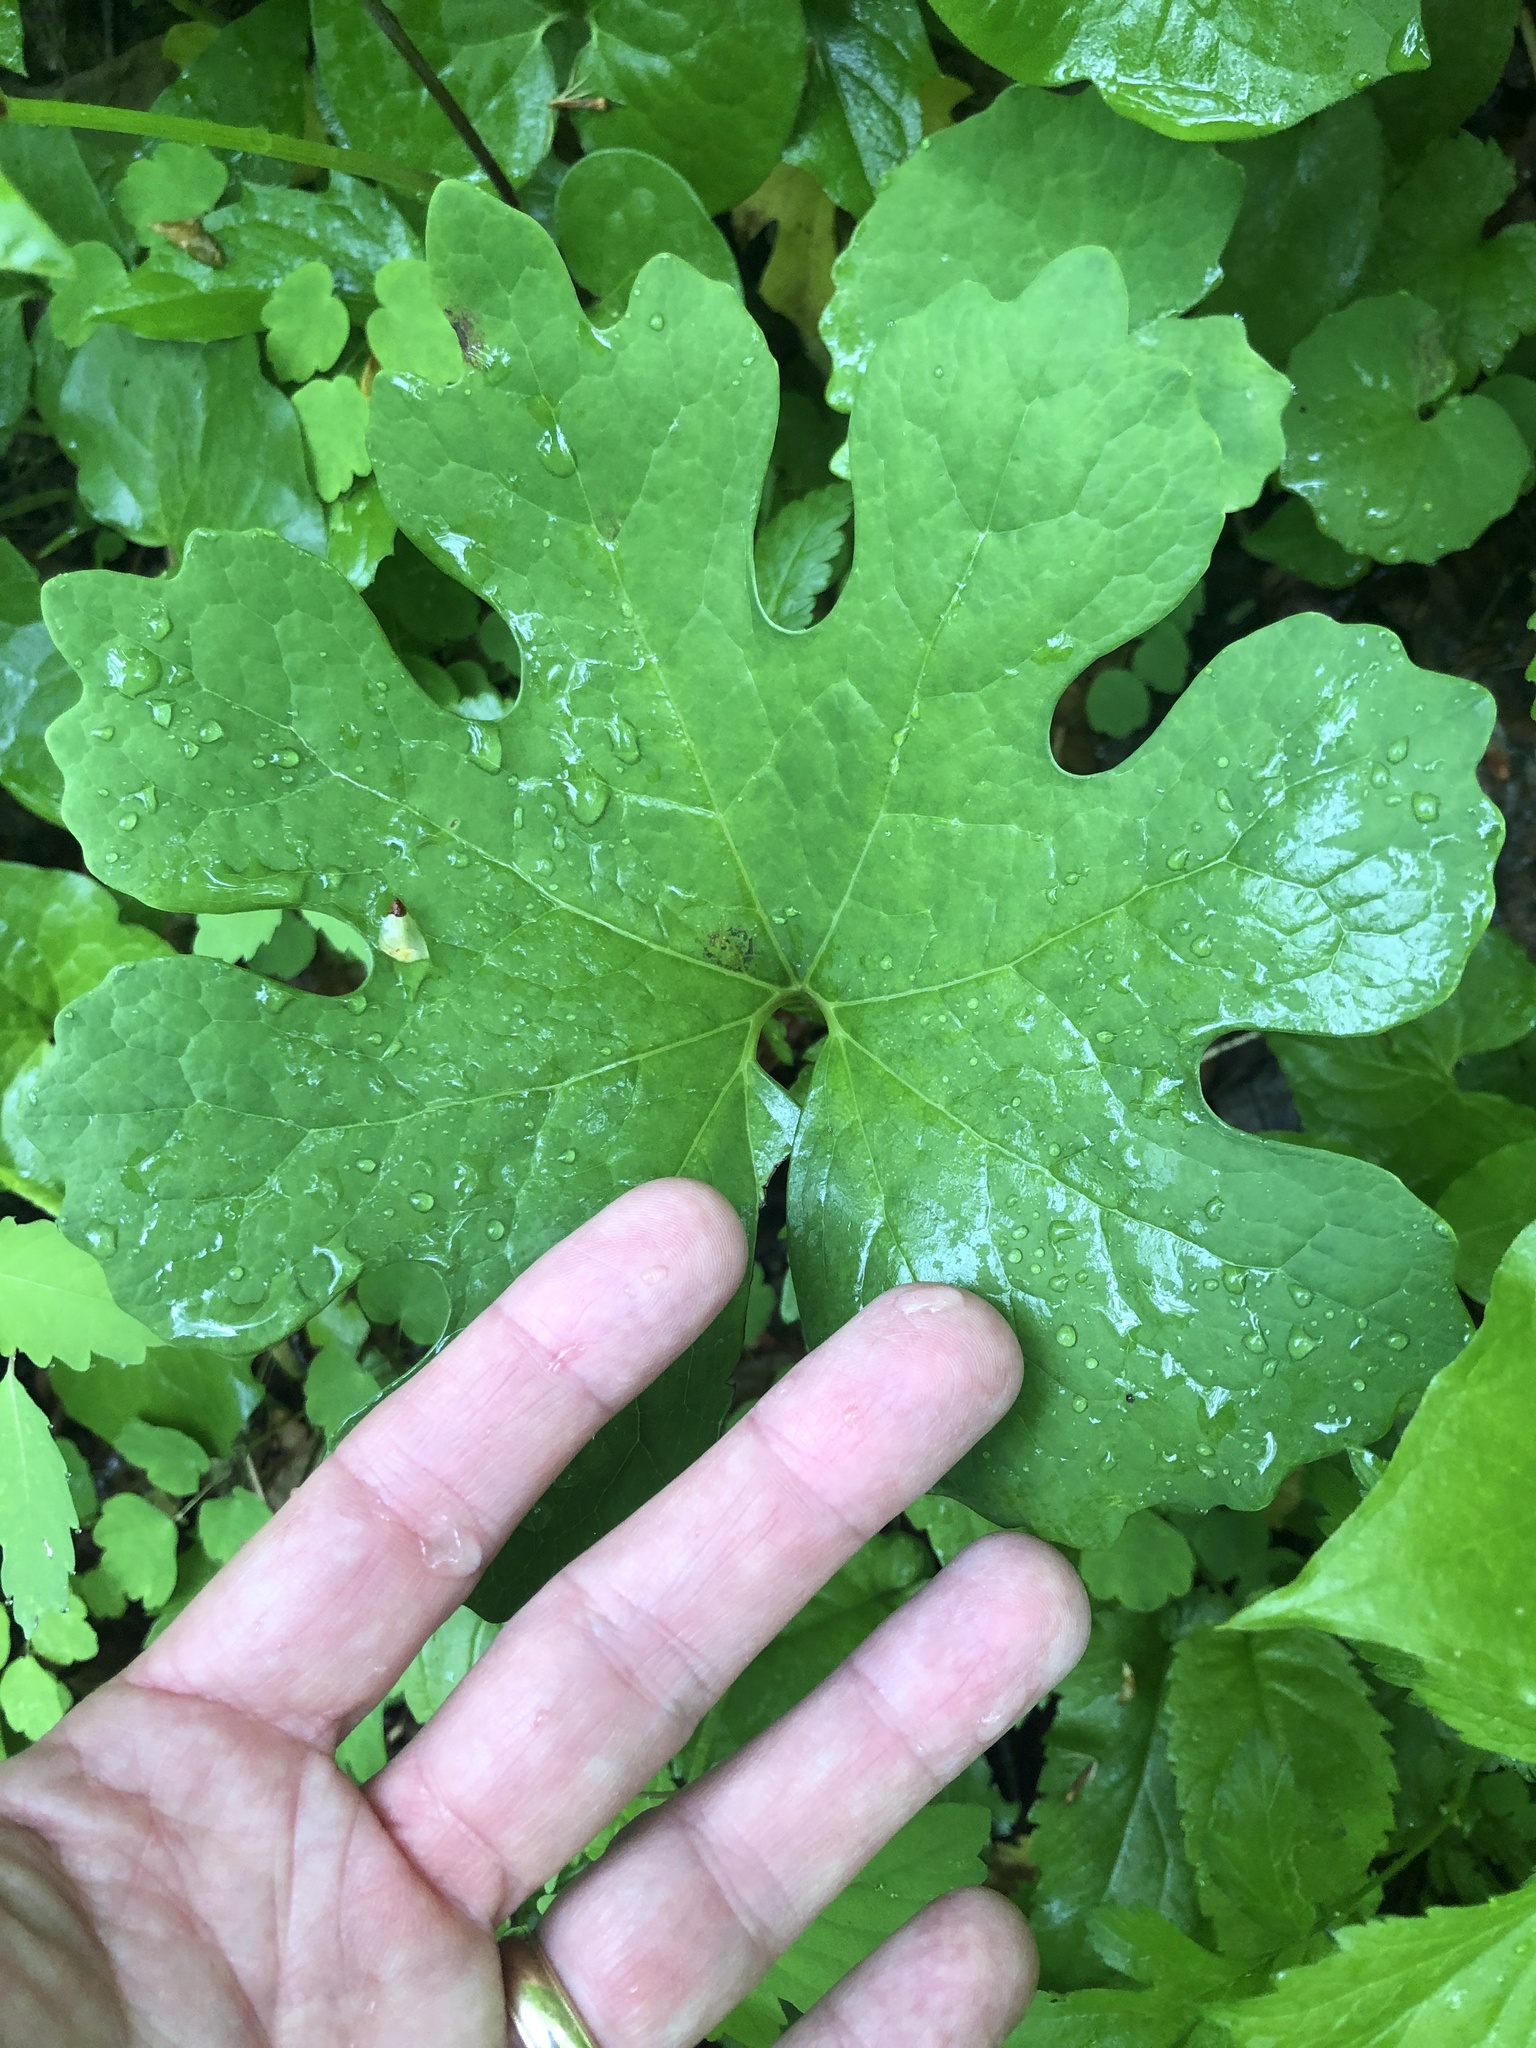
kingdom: Plantae
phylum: Tracheophyta
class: Magnoliopsida
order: Ranunculales
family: Papaveraceae
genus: Sanguinaria
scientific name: Sanguinaria canadensis
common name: Bloodroot
